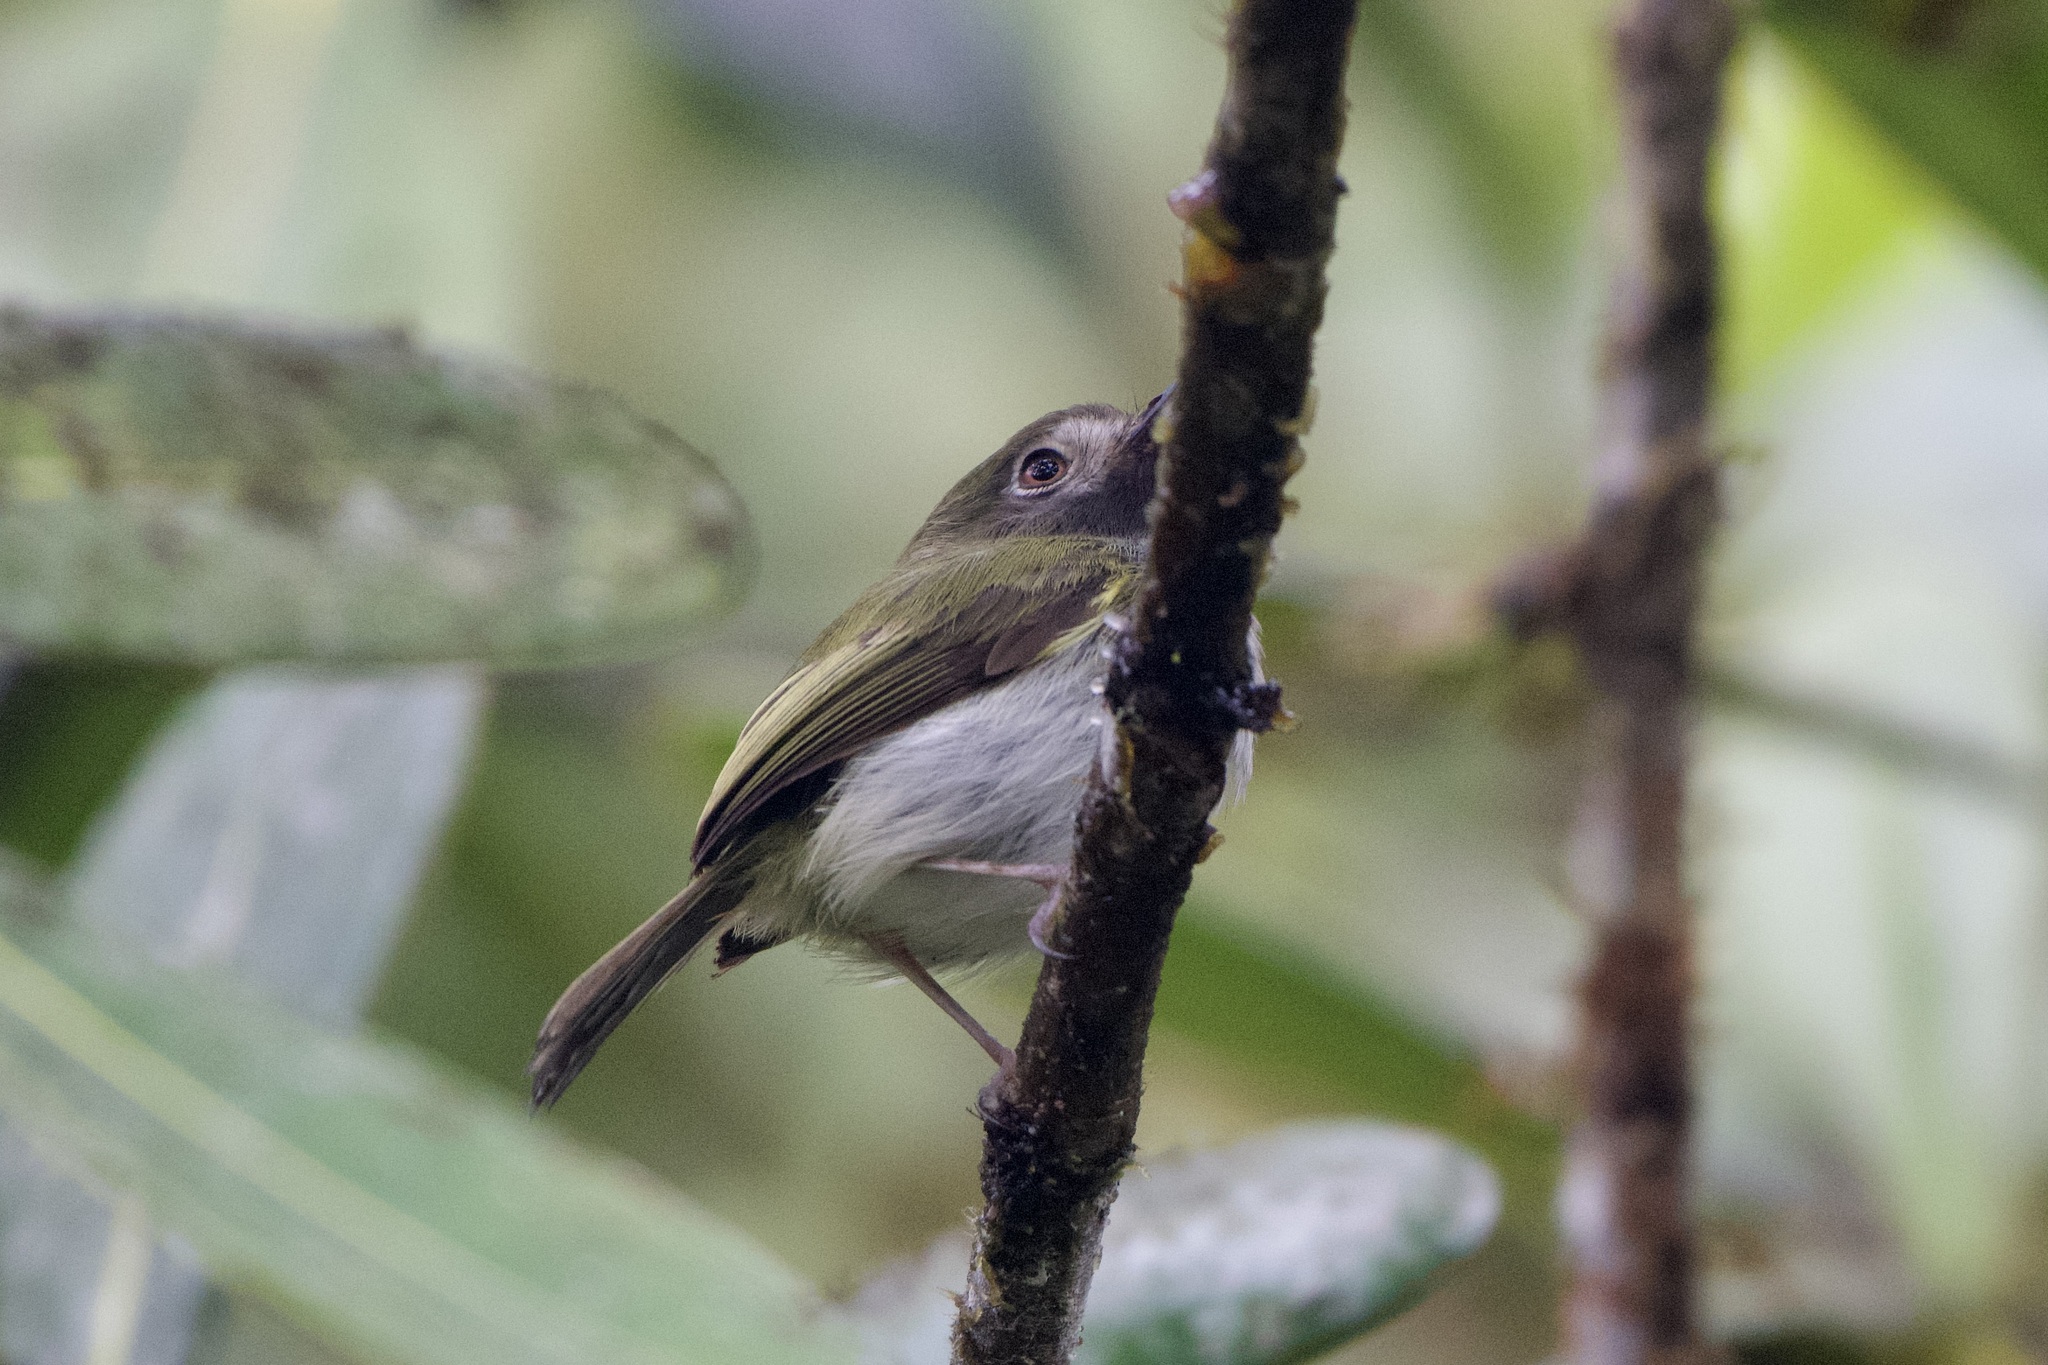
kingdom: Animalia
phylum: Chordata
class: Aves
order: Passeriformes
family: Tyrannidae
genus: Hemitriccus
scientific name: Hemitriccus granadensis
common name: Black-throated tody-tyrant
